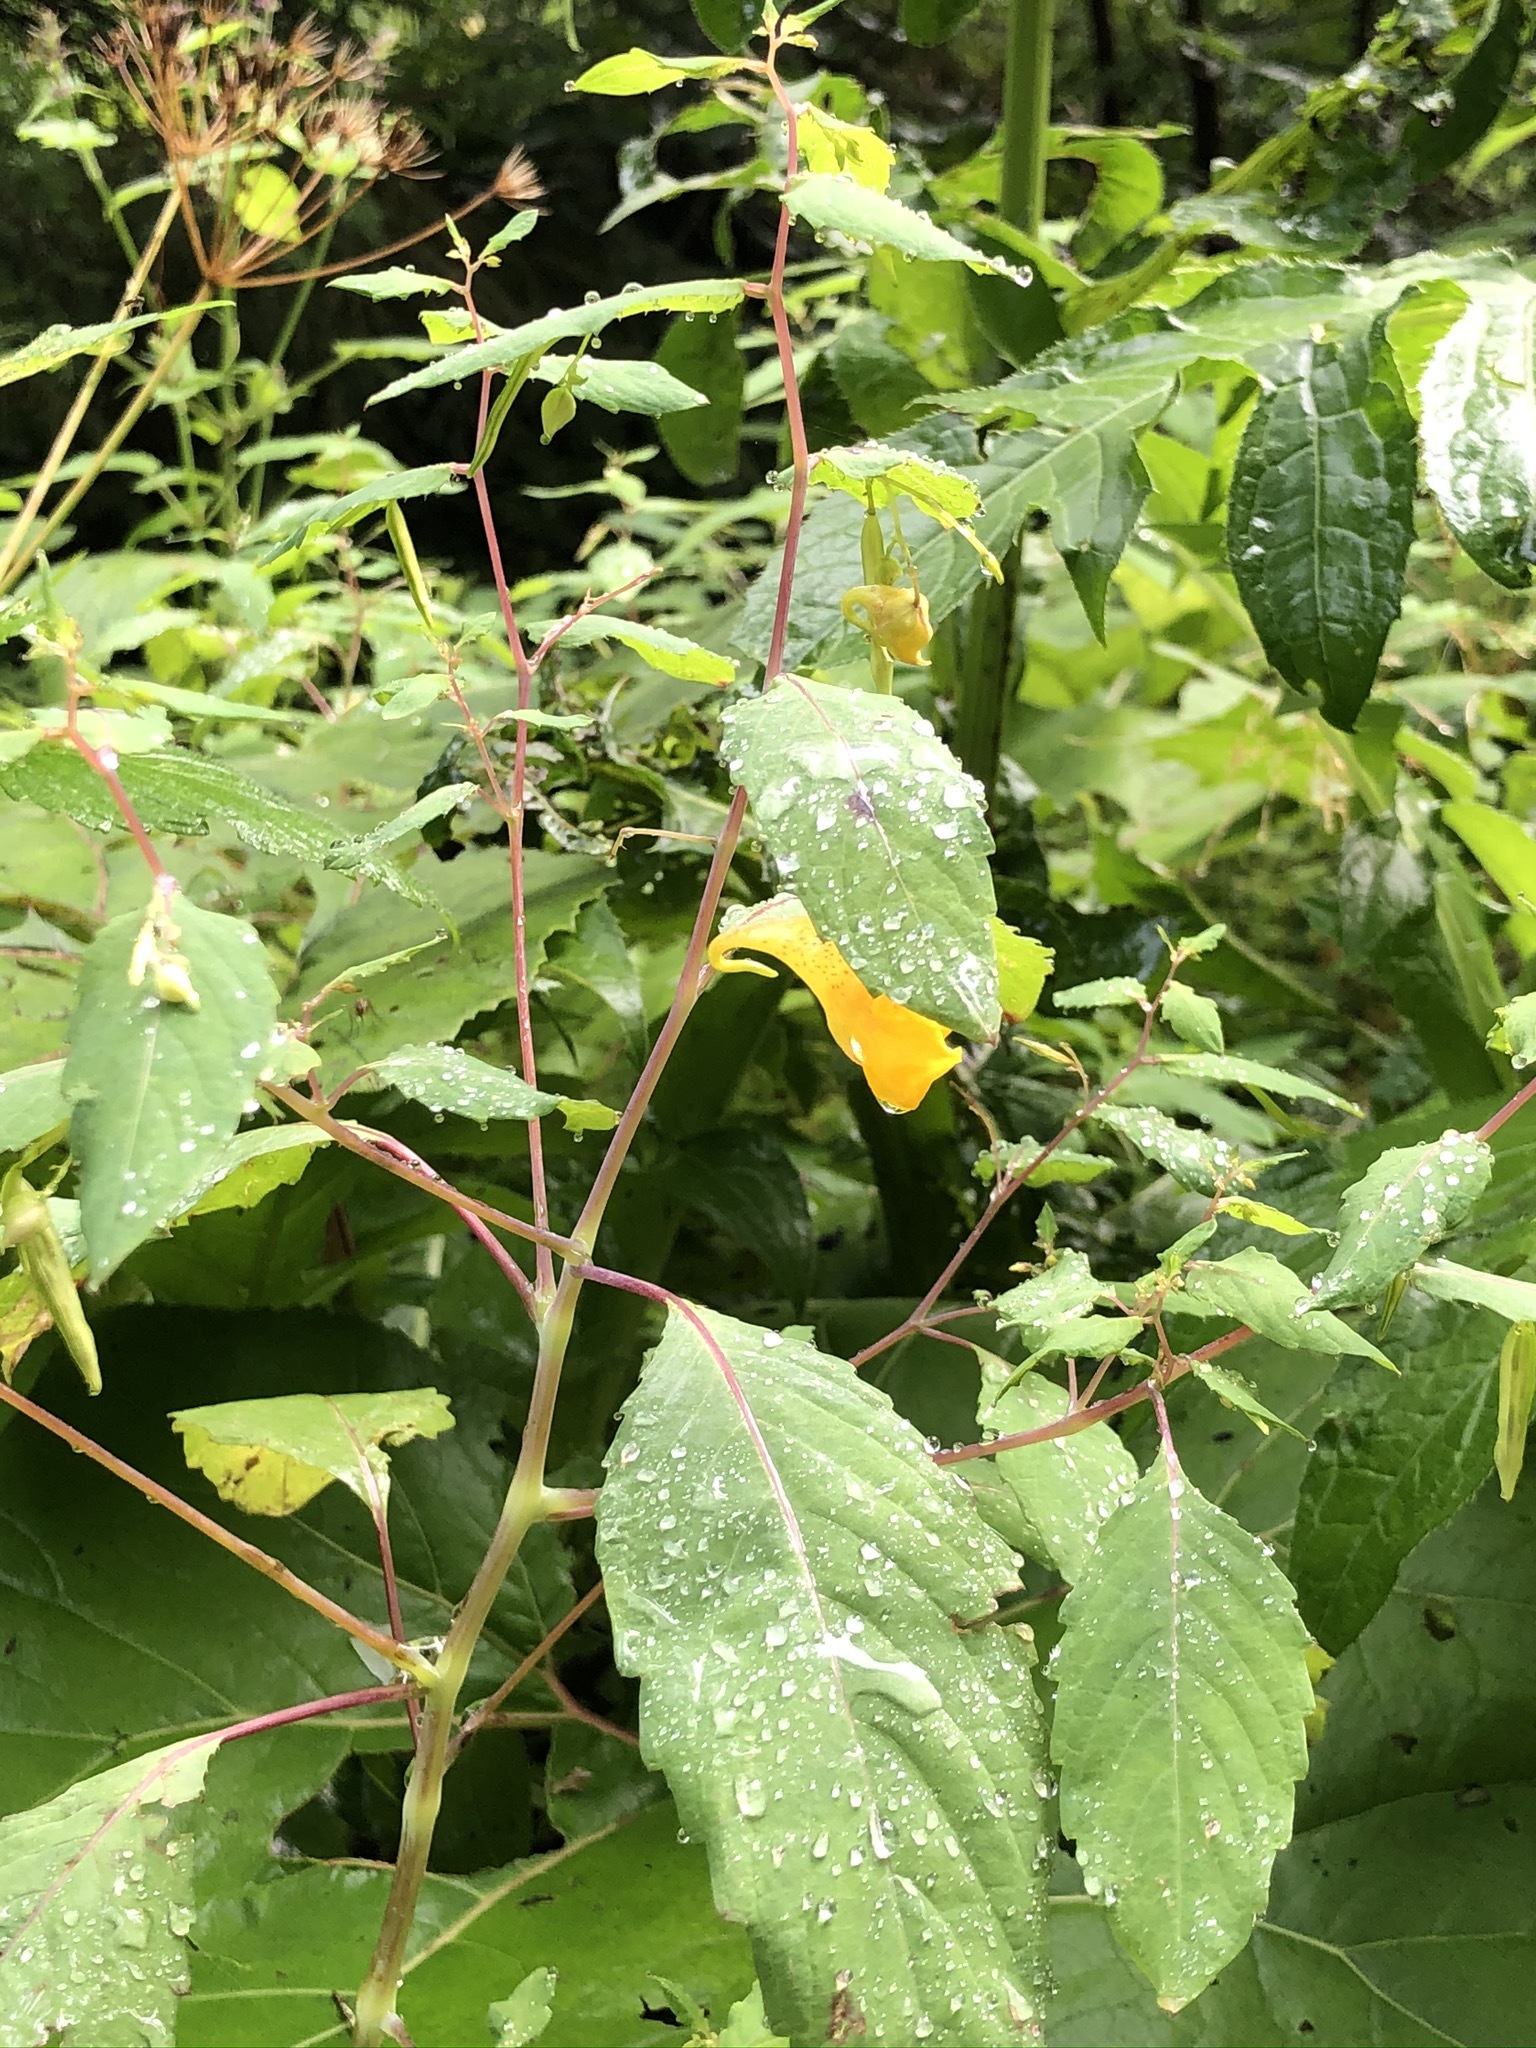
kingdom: Plantae
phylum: Tracheophyta
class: Magnoliopsida
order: Ericales
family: Balsaminaceae
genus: Impatiens
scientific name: Impatiens noli-tangere
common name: Touch-me-not balsam
